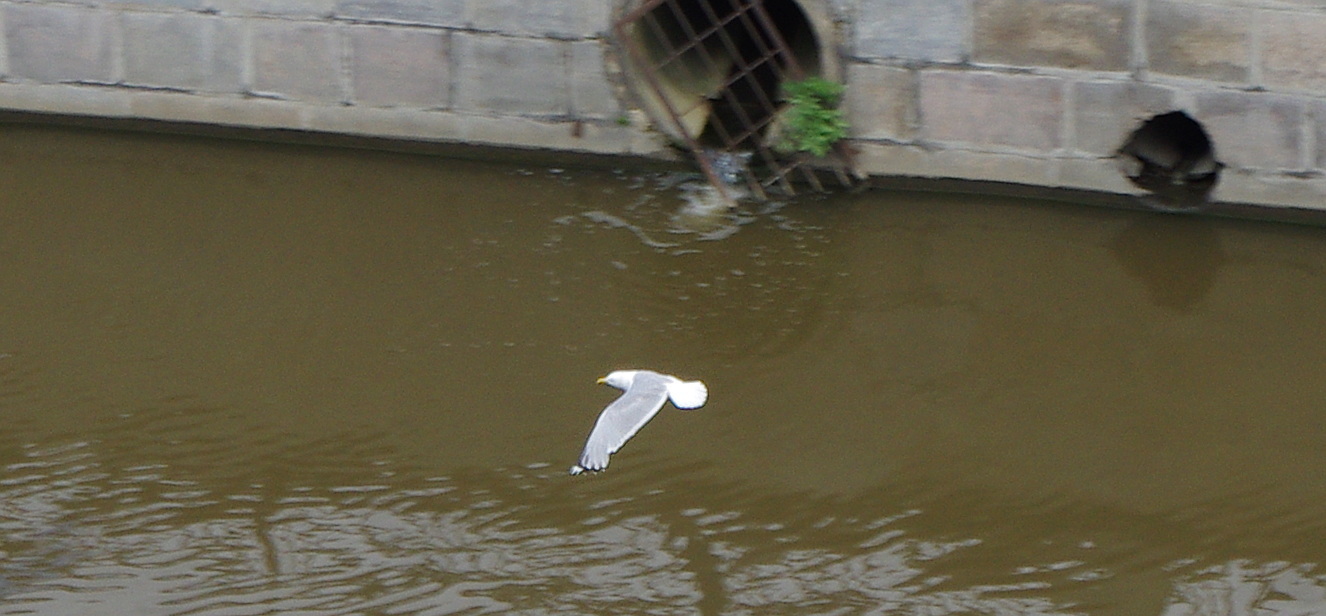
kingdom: Animalia
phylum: Chordata
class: Aves
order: Charadriiformes
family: Laridae
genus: Larus
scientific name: Larus argentatus
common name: Herring gull
